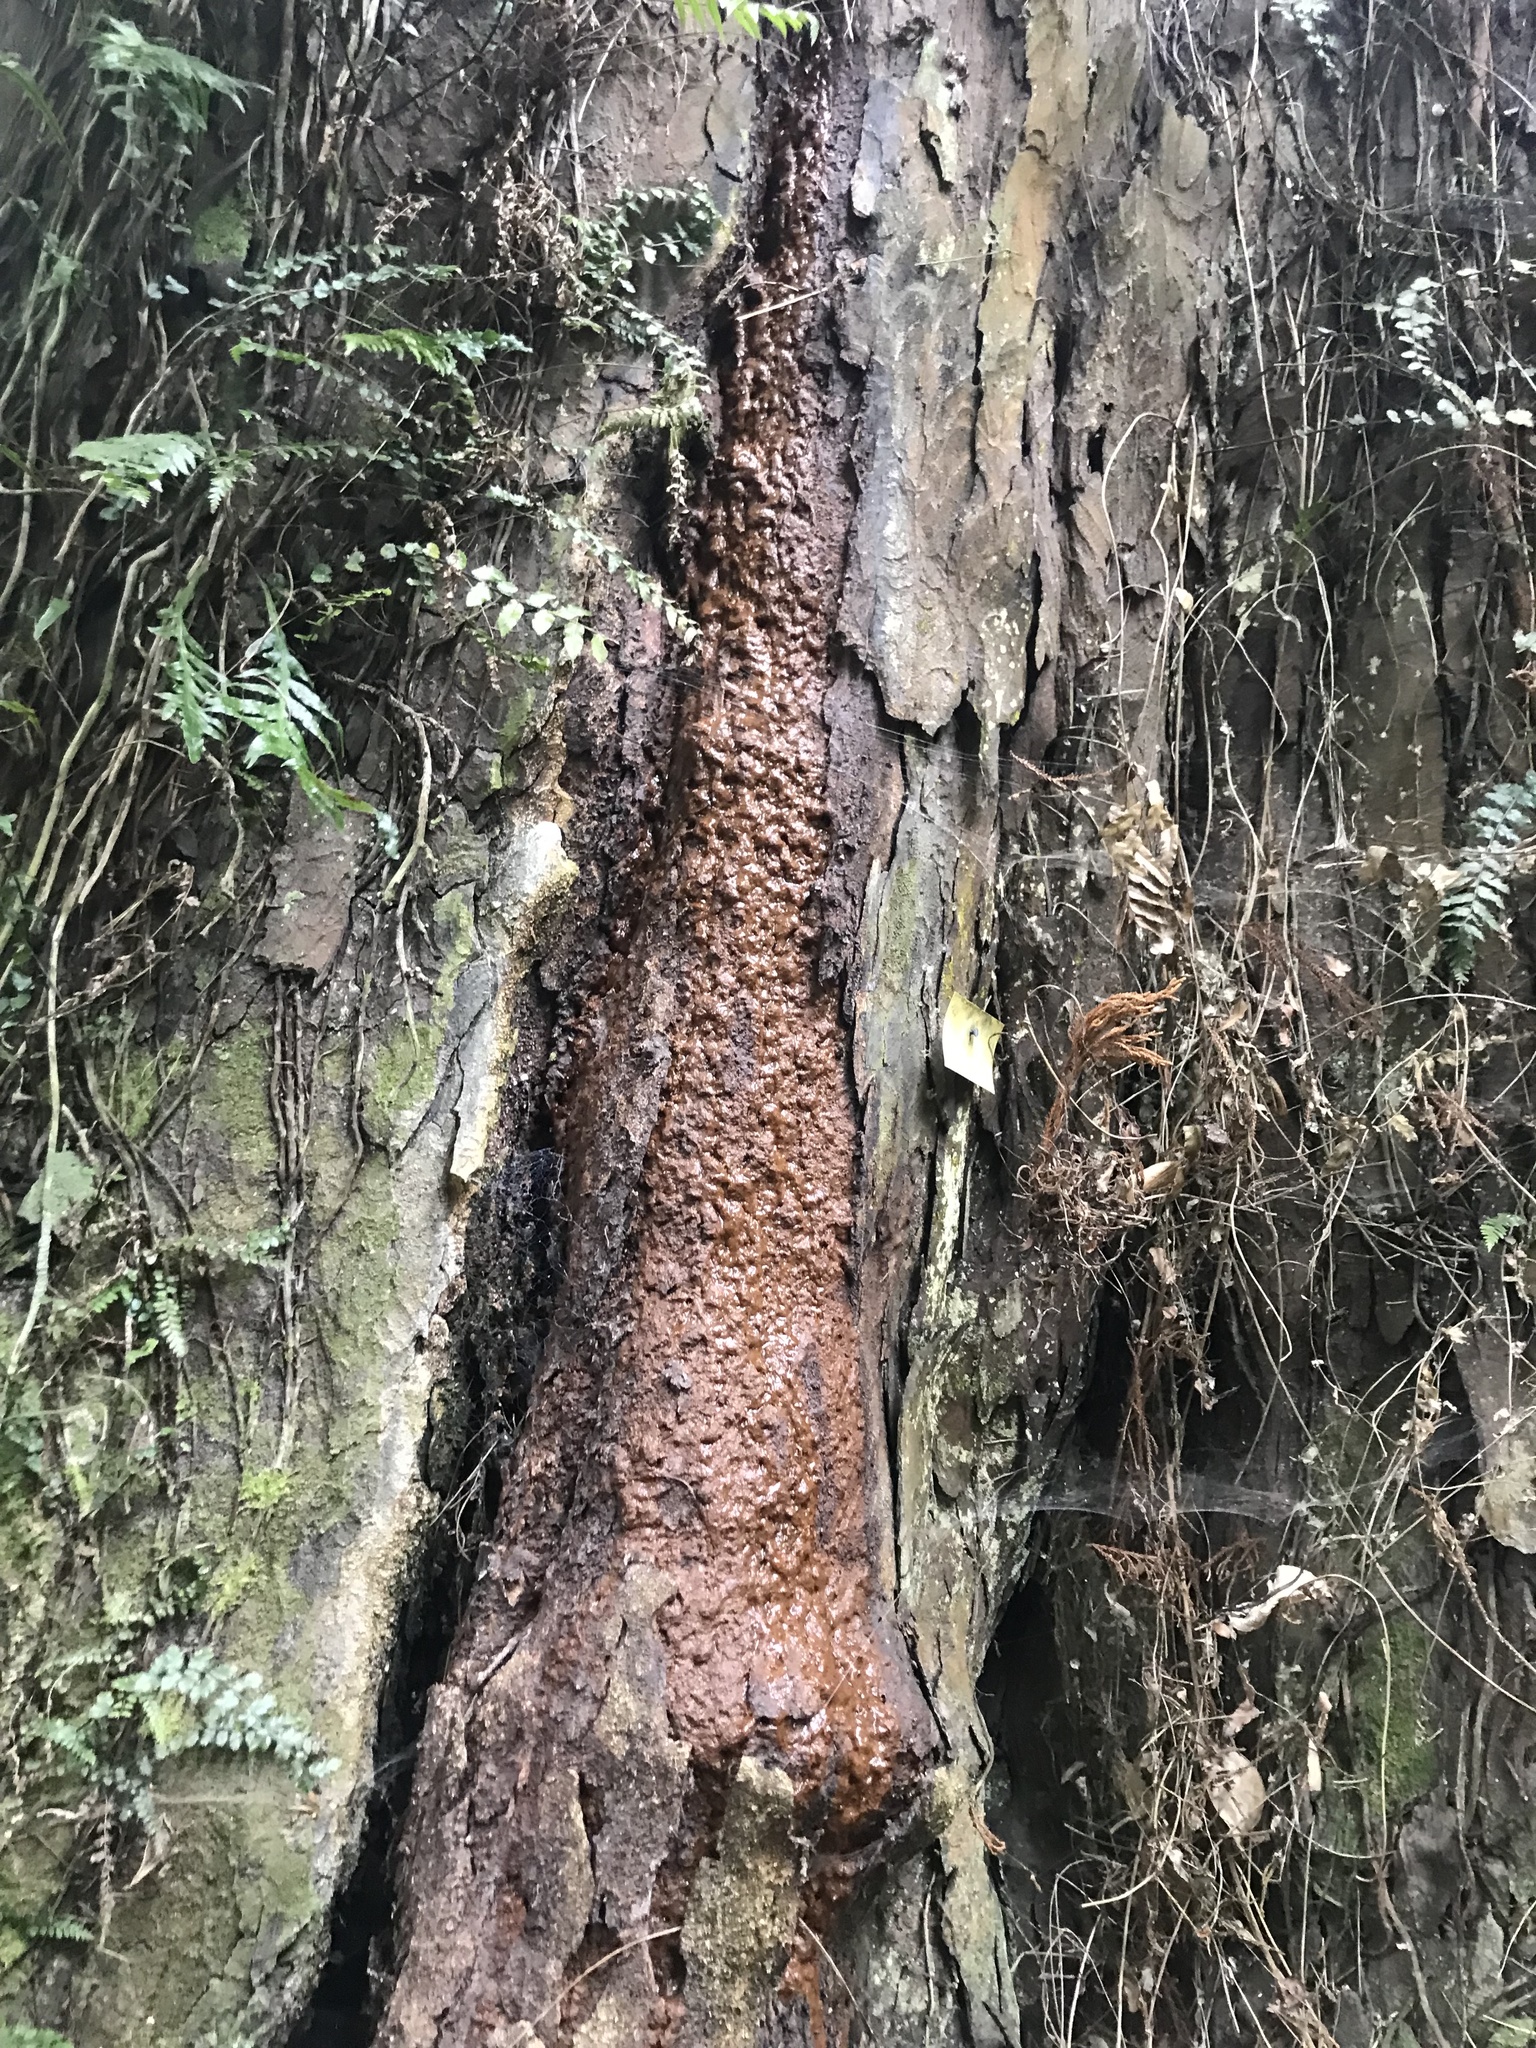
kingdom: Plantae
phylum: Tracheophyta
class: Pinopsida
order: Pinales
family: Podocarpaceae
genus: Dacrydium
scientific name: Dacrydium cupressinum
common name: Red pine
